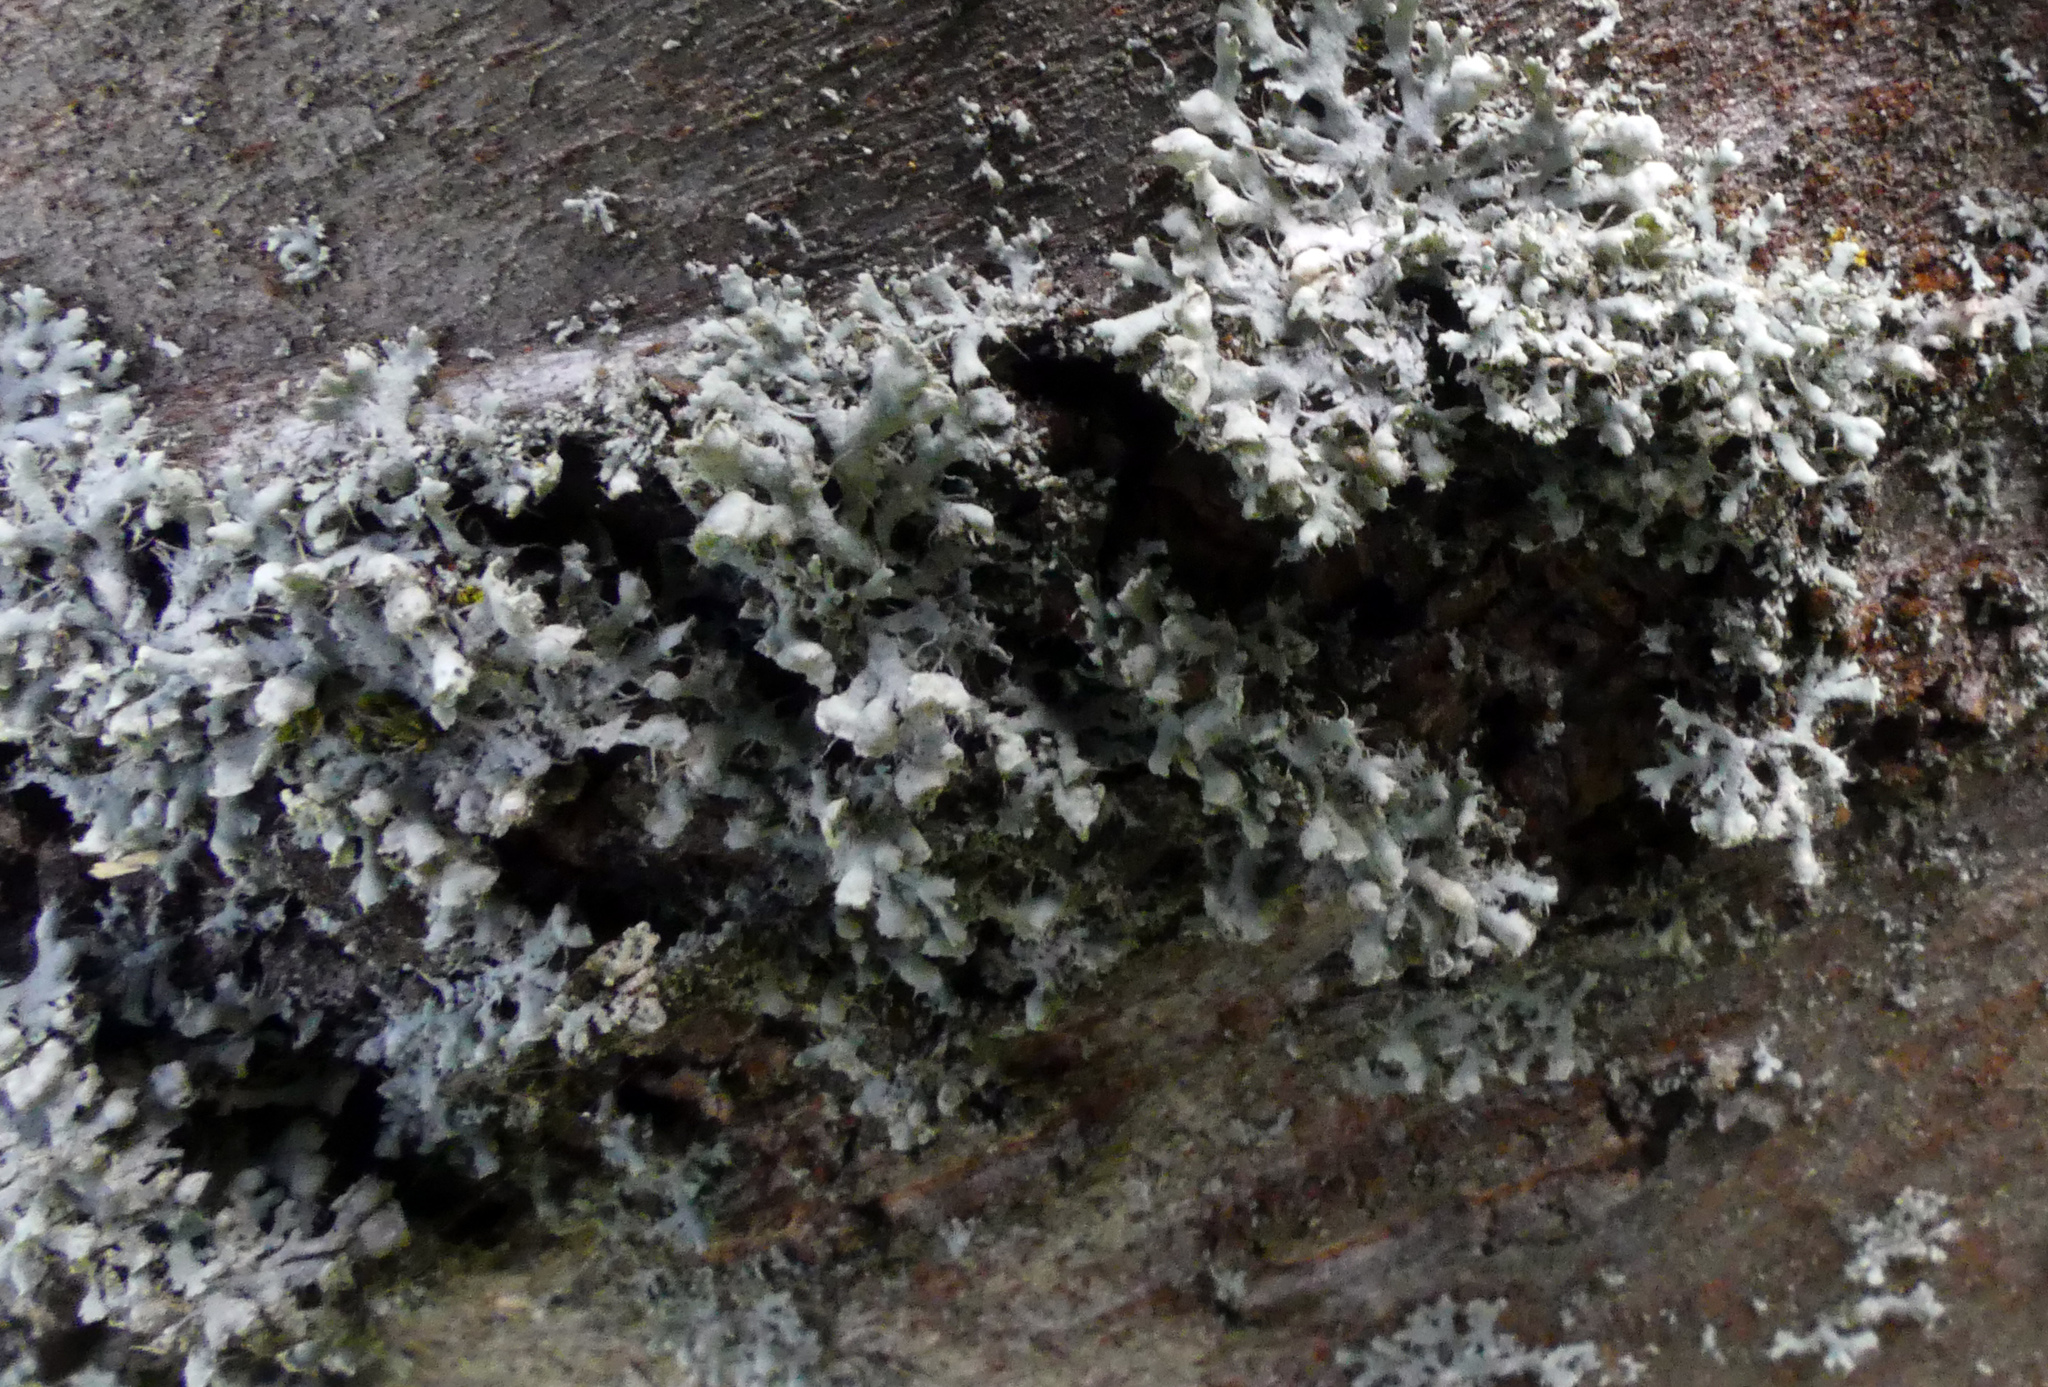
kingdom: Fungi
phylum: Ascomycota
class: Lecanoromycetes
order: Caliciales
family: Physciaceae
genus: Physcia
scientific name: Physcia adscendens
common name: Hooded rosette lichen
